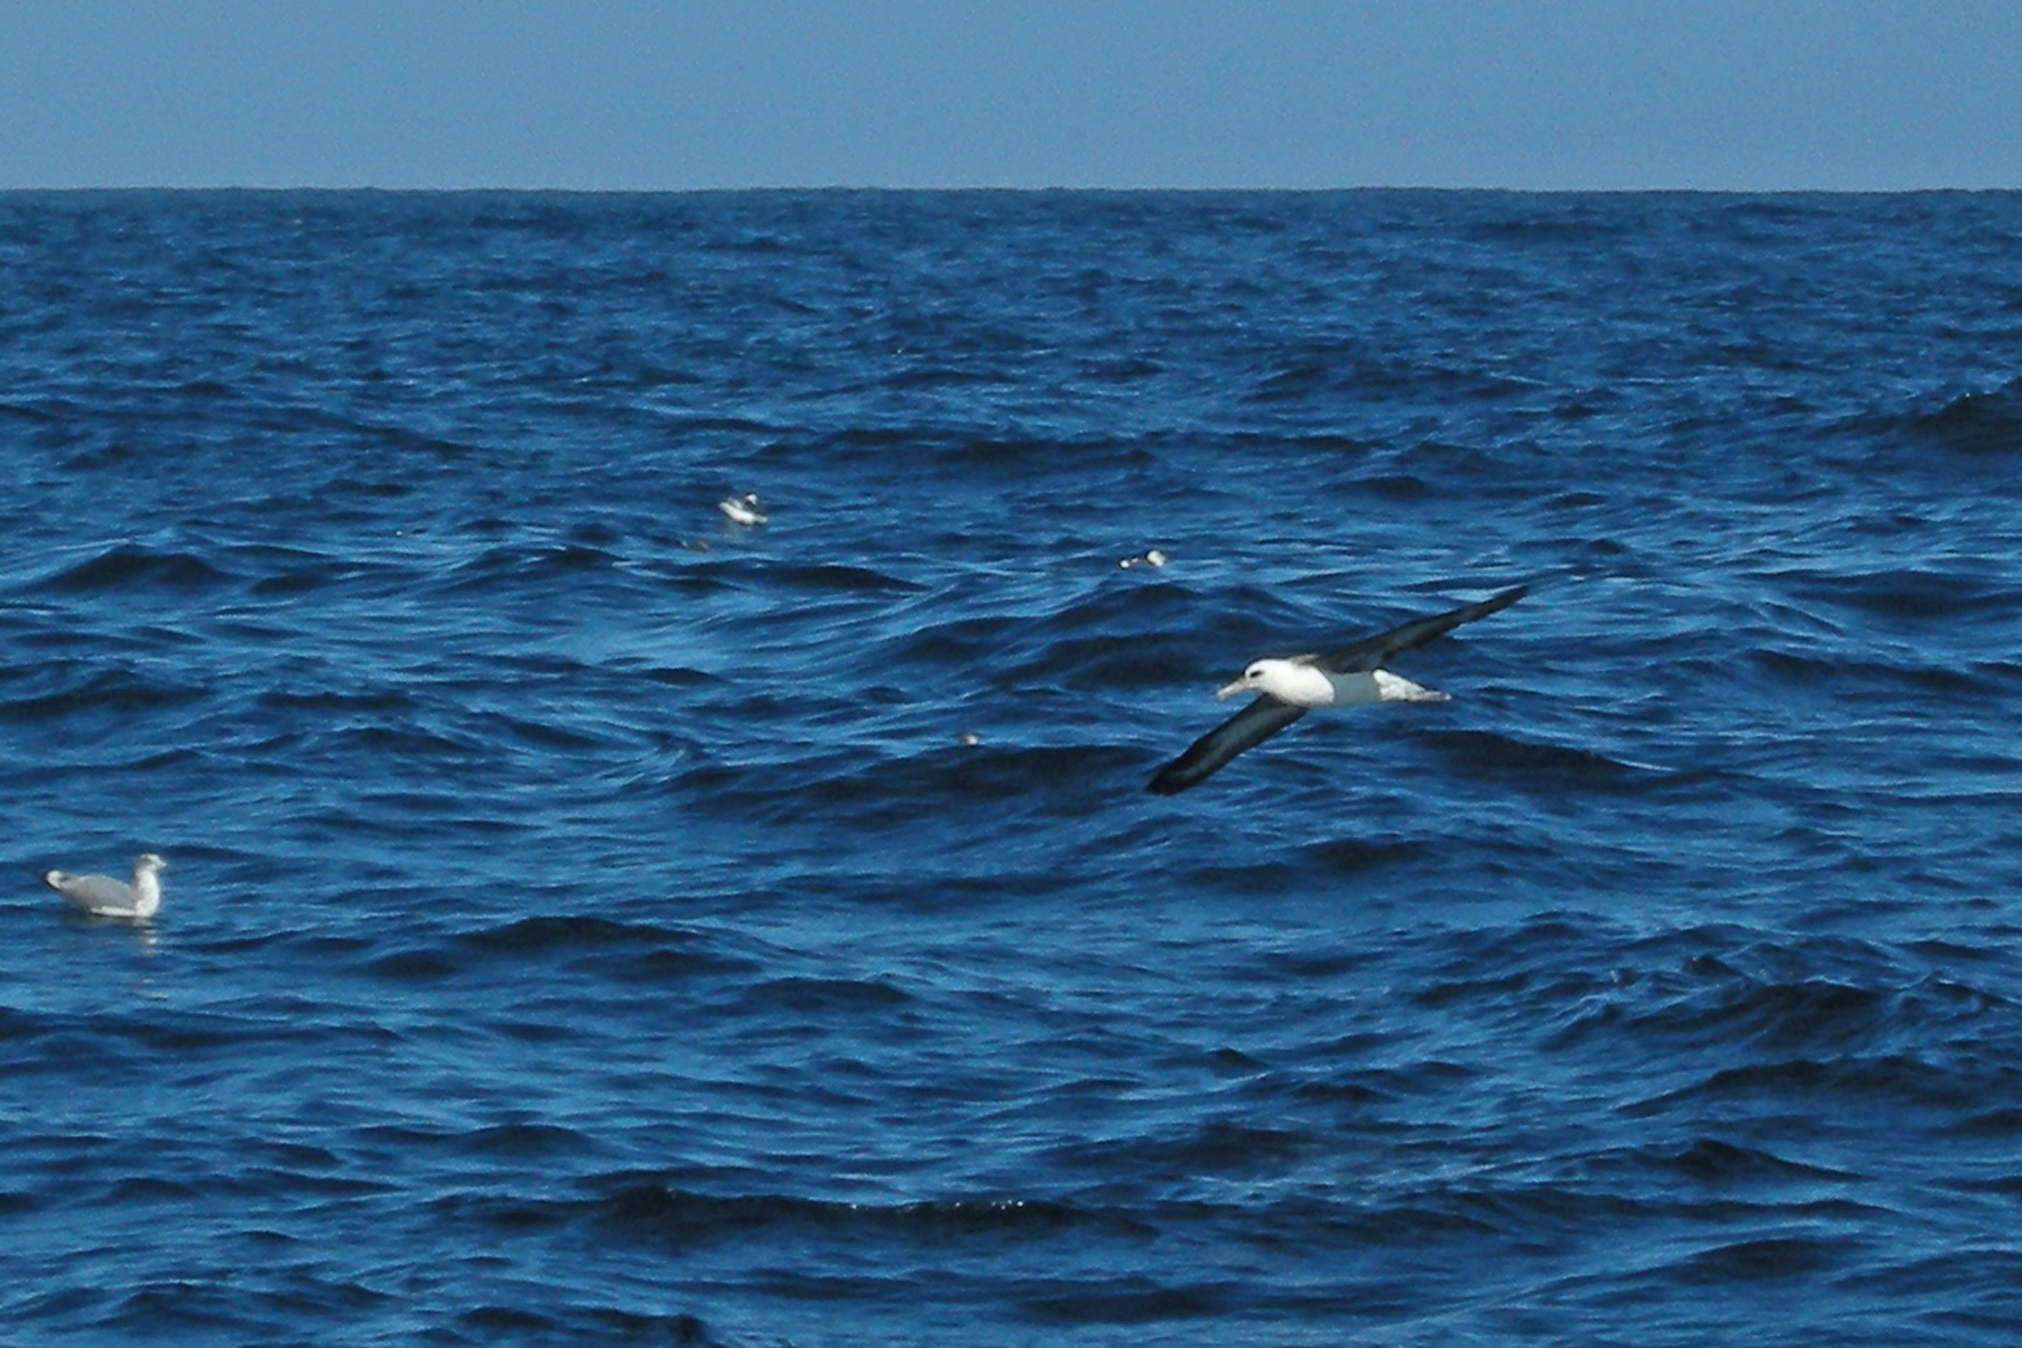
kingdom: Animalia
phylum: Chordata
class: Aves
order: Procellariiformes
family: Diomedeidae
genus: Phoebastria
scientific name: Phoebastria immutabilis
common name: Laysan albatross
